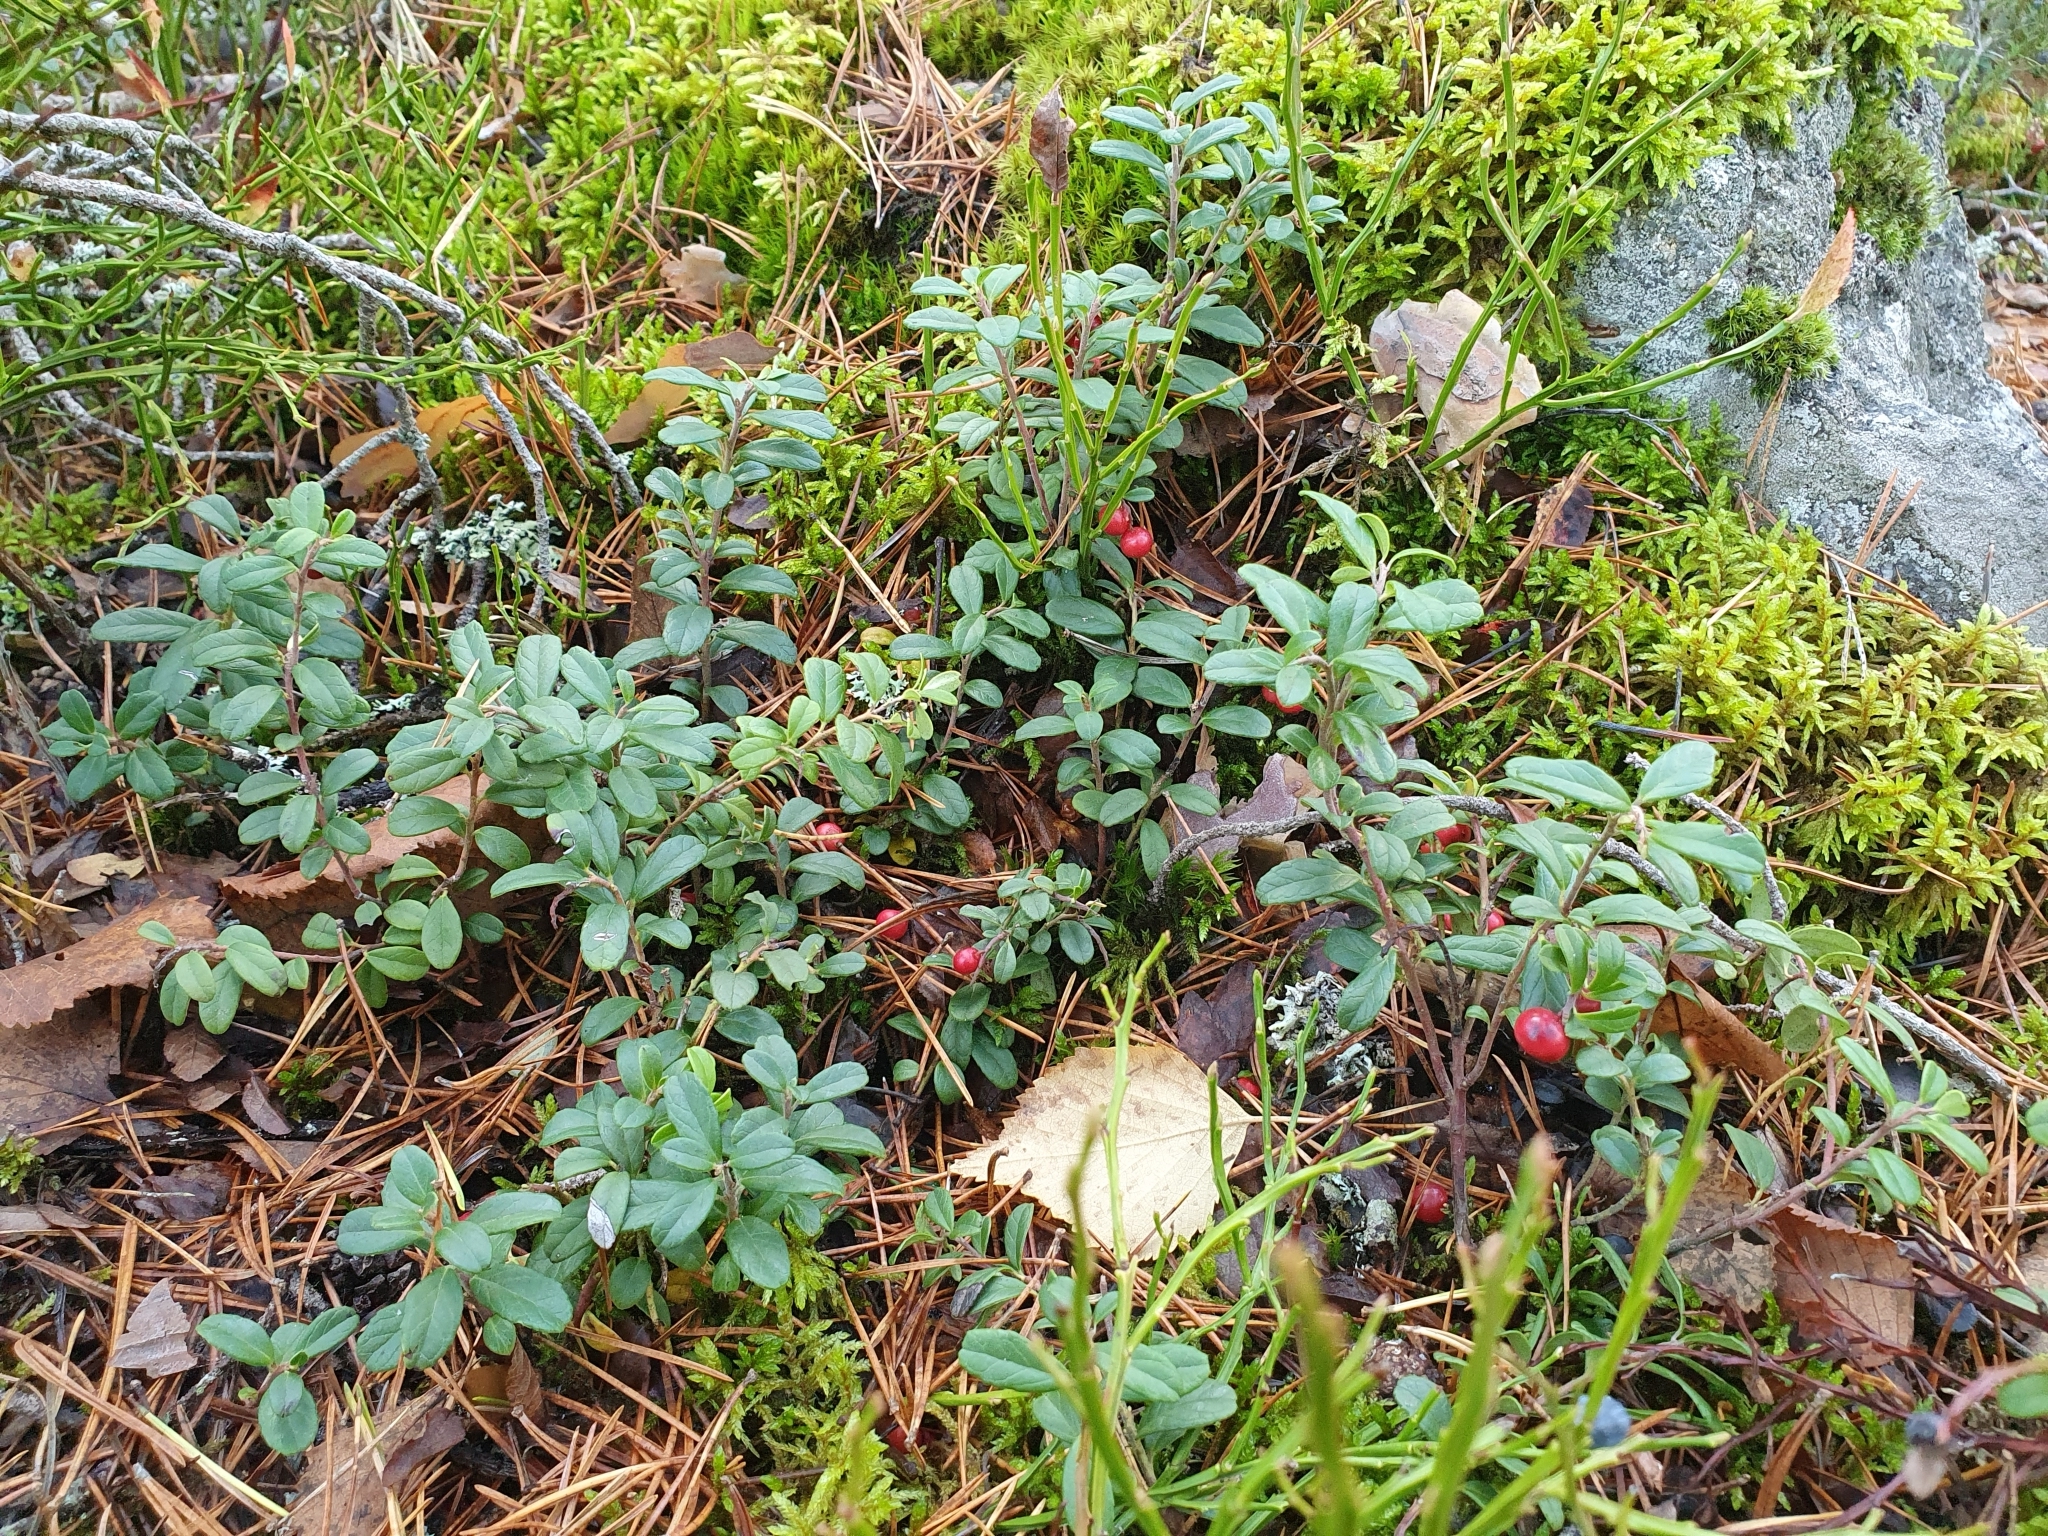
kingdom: Plantae
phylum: Tracheophyta
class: Magnoliopsida
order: Ericales
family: Ericaceae
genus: Vaccinium
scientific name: Vaccinium vitis-idaea
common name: Cowberry
